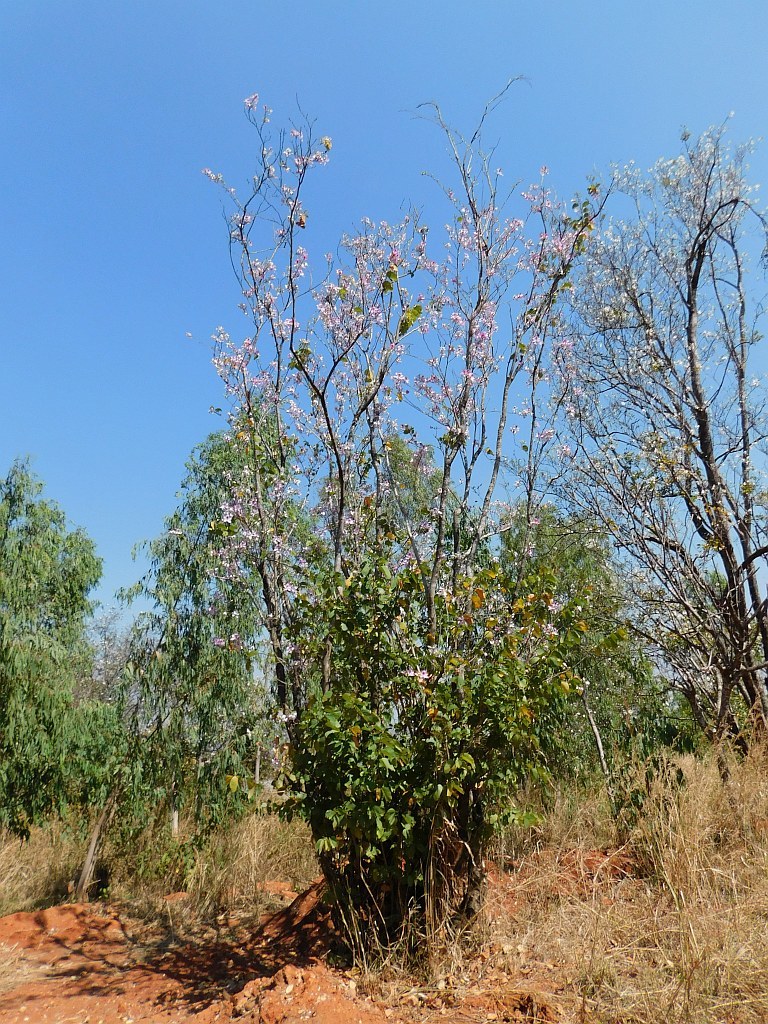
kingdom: Plantae
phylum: Tracheophyta
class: Magnoliopsida
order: Fabales
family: Fabaceae
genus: Bauhinia
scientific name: Bauhinia variegata
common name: Mountain ebony
